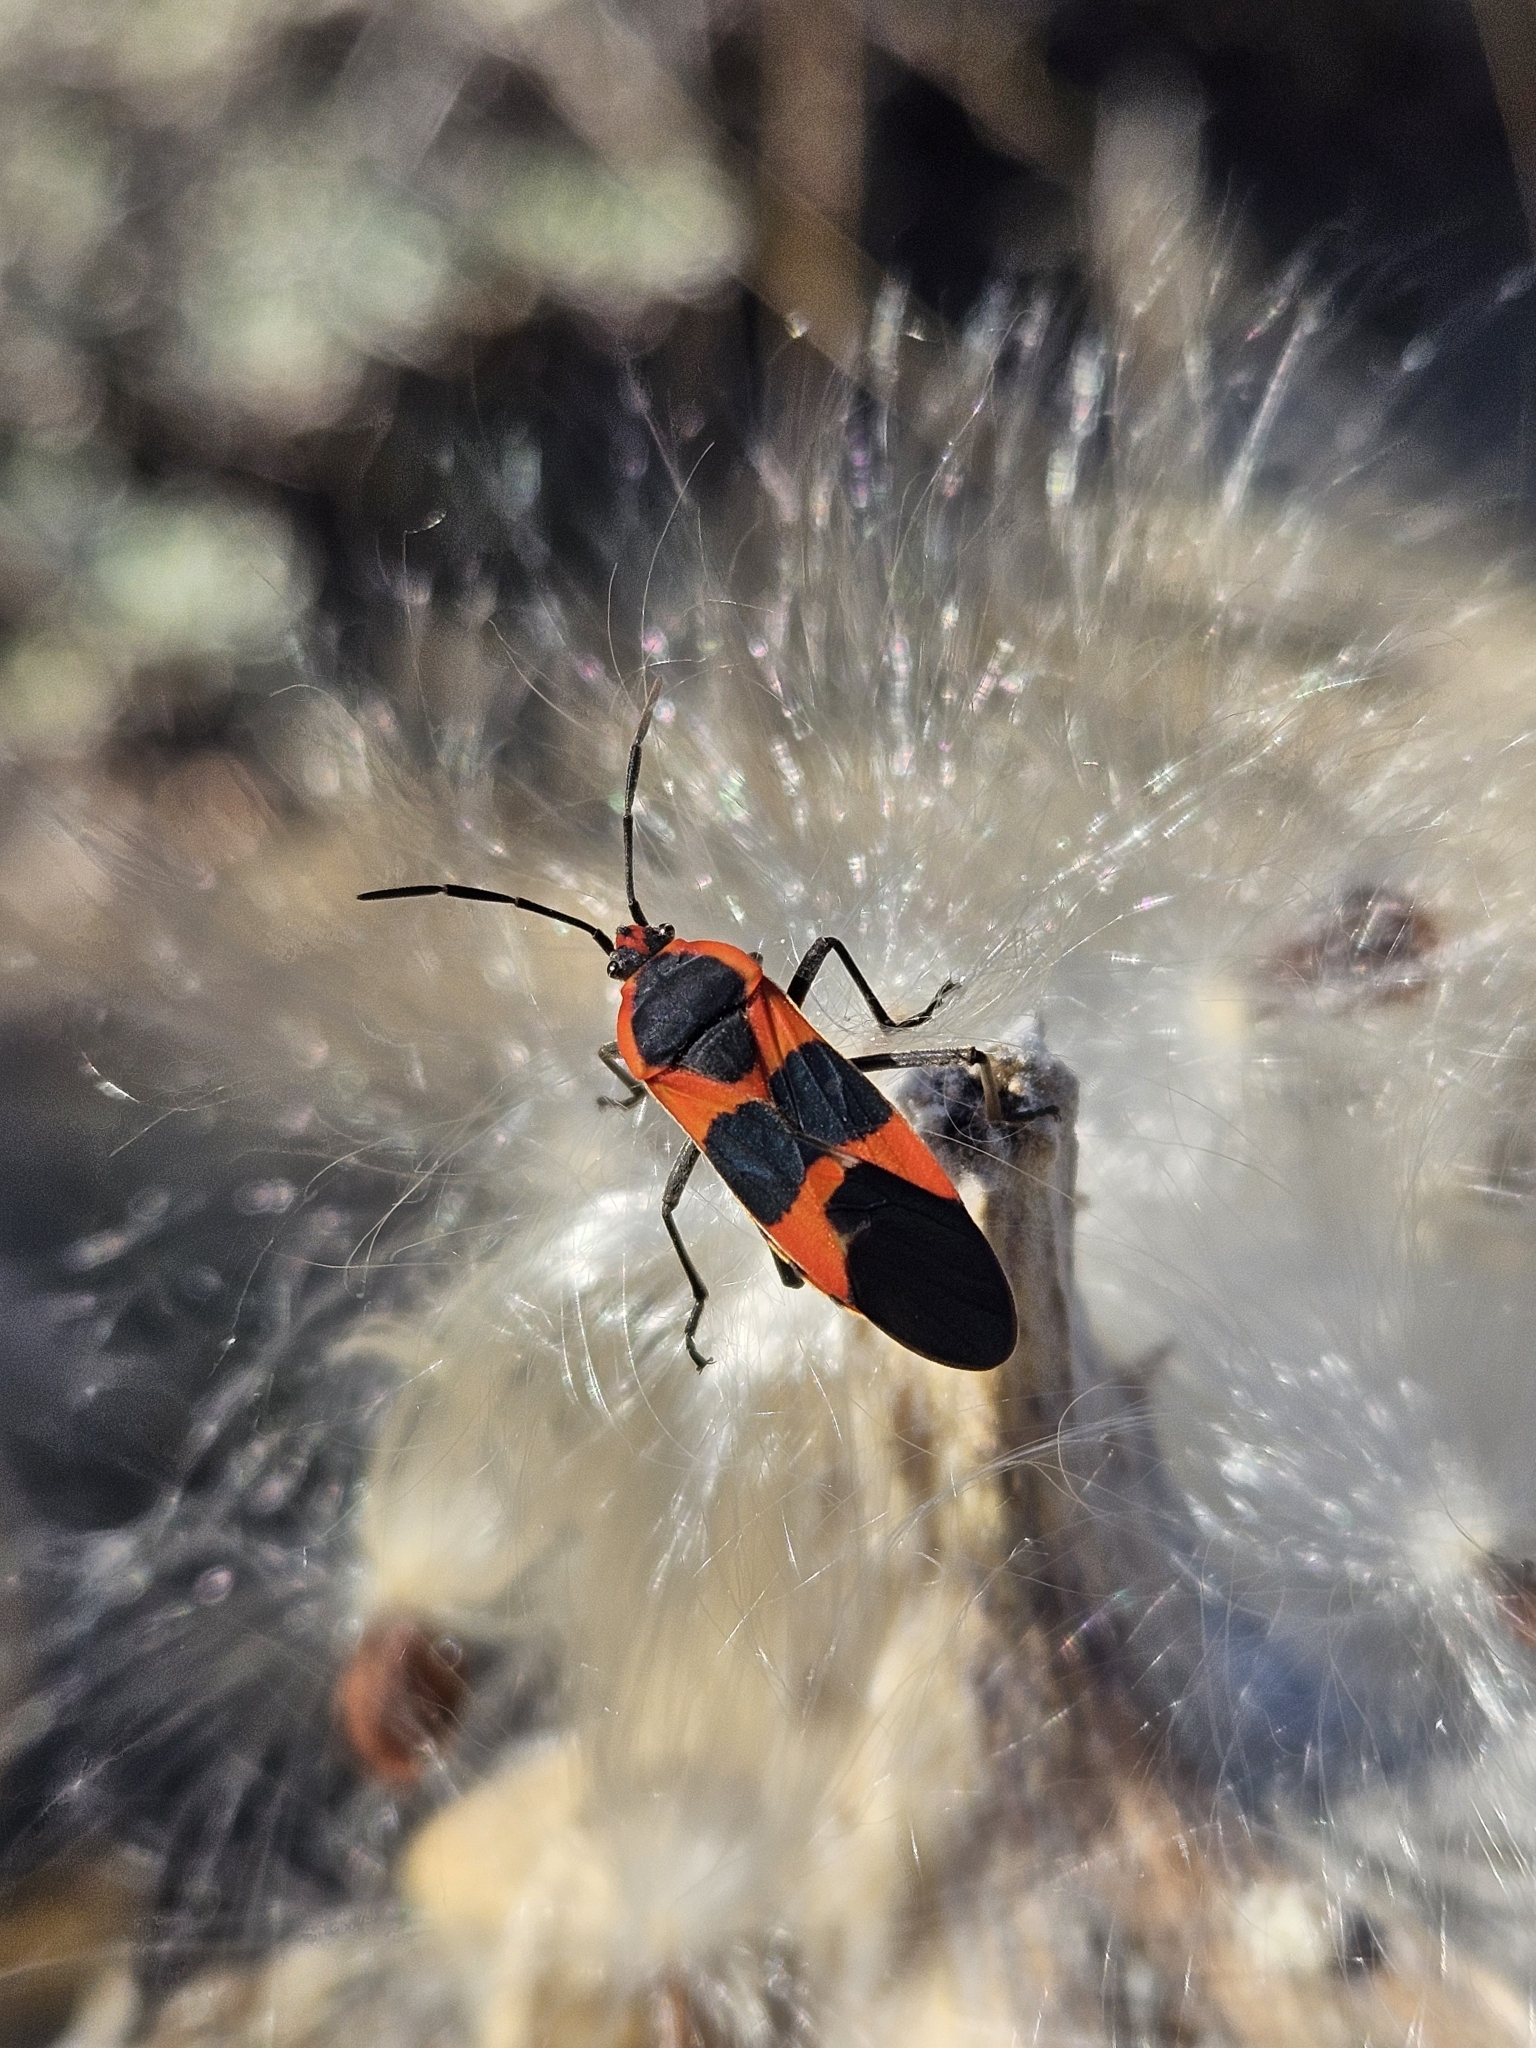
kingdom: Animalia
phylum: Arthropoda
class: Insecta
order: Hemiptera
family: Lygaeidae
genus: Oncopeltus
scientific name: Oncopeltus fasciatus
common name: Large milkweed bug
